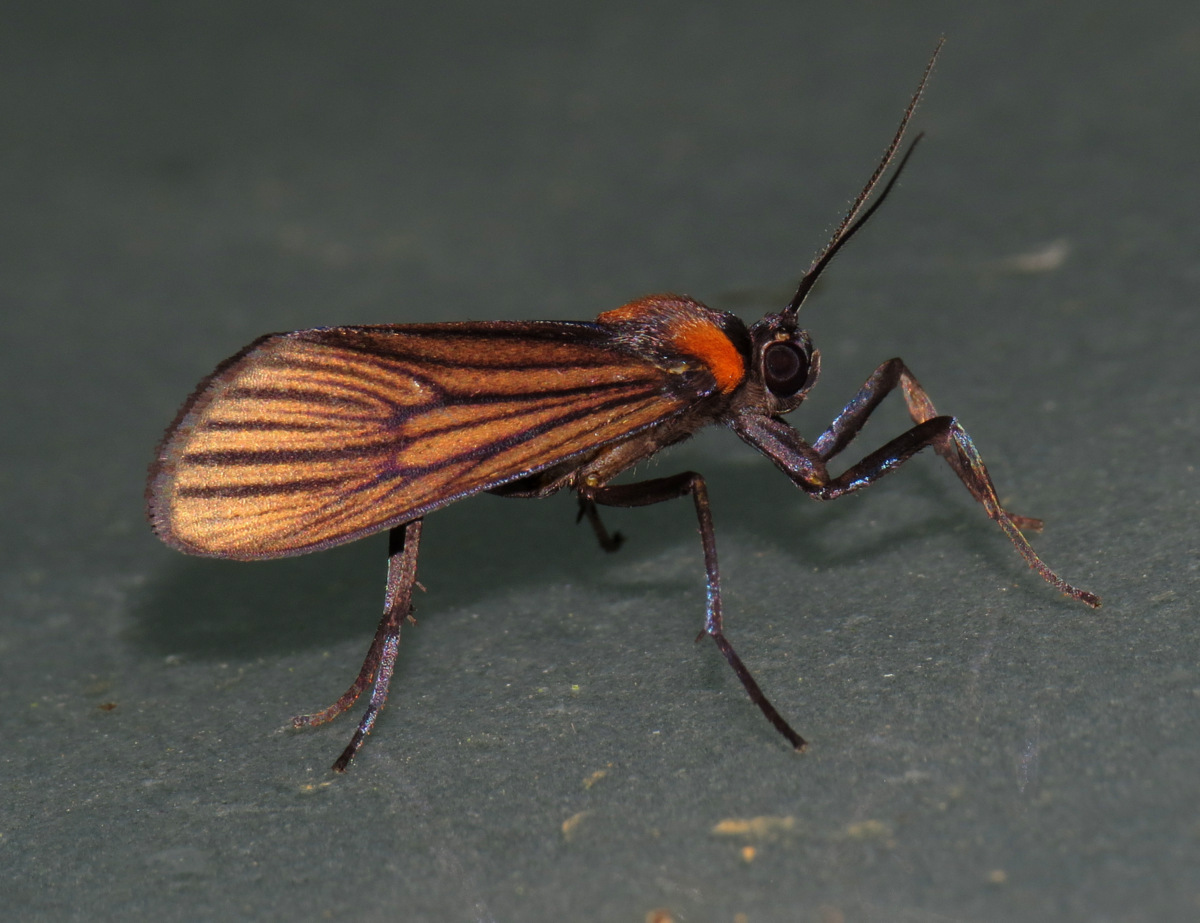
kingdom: Animalia
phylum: Arthropoda
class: Insecta
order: Lepidoptera
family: Erebidae
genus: Antona
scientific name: Antona diffinis
